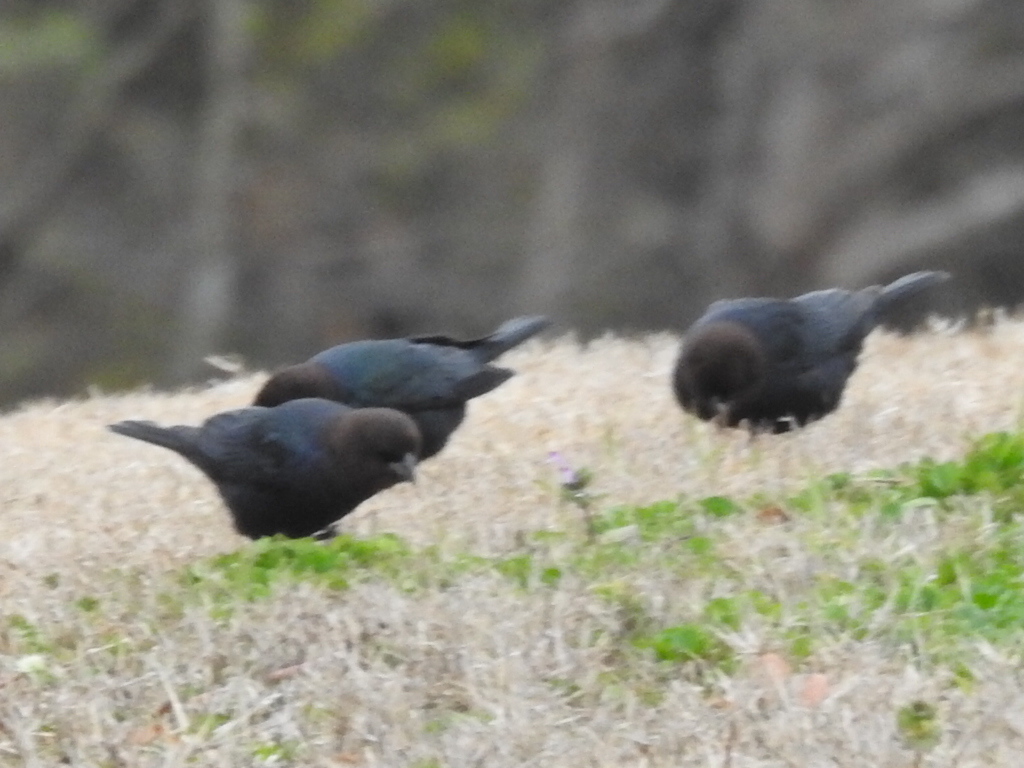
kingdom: Animalia
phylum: Chordata
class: Aves
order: Passeriformes
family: Icteridae
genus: Molothrus
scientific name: Molothrus ater
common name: Brown-headed cowbird
